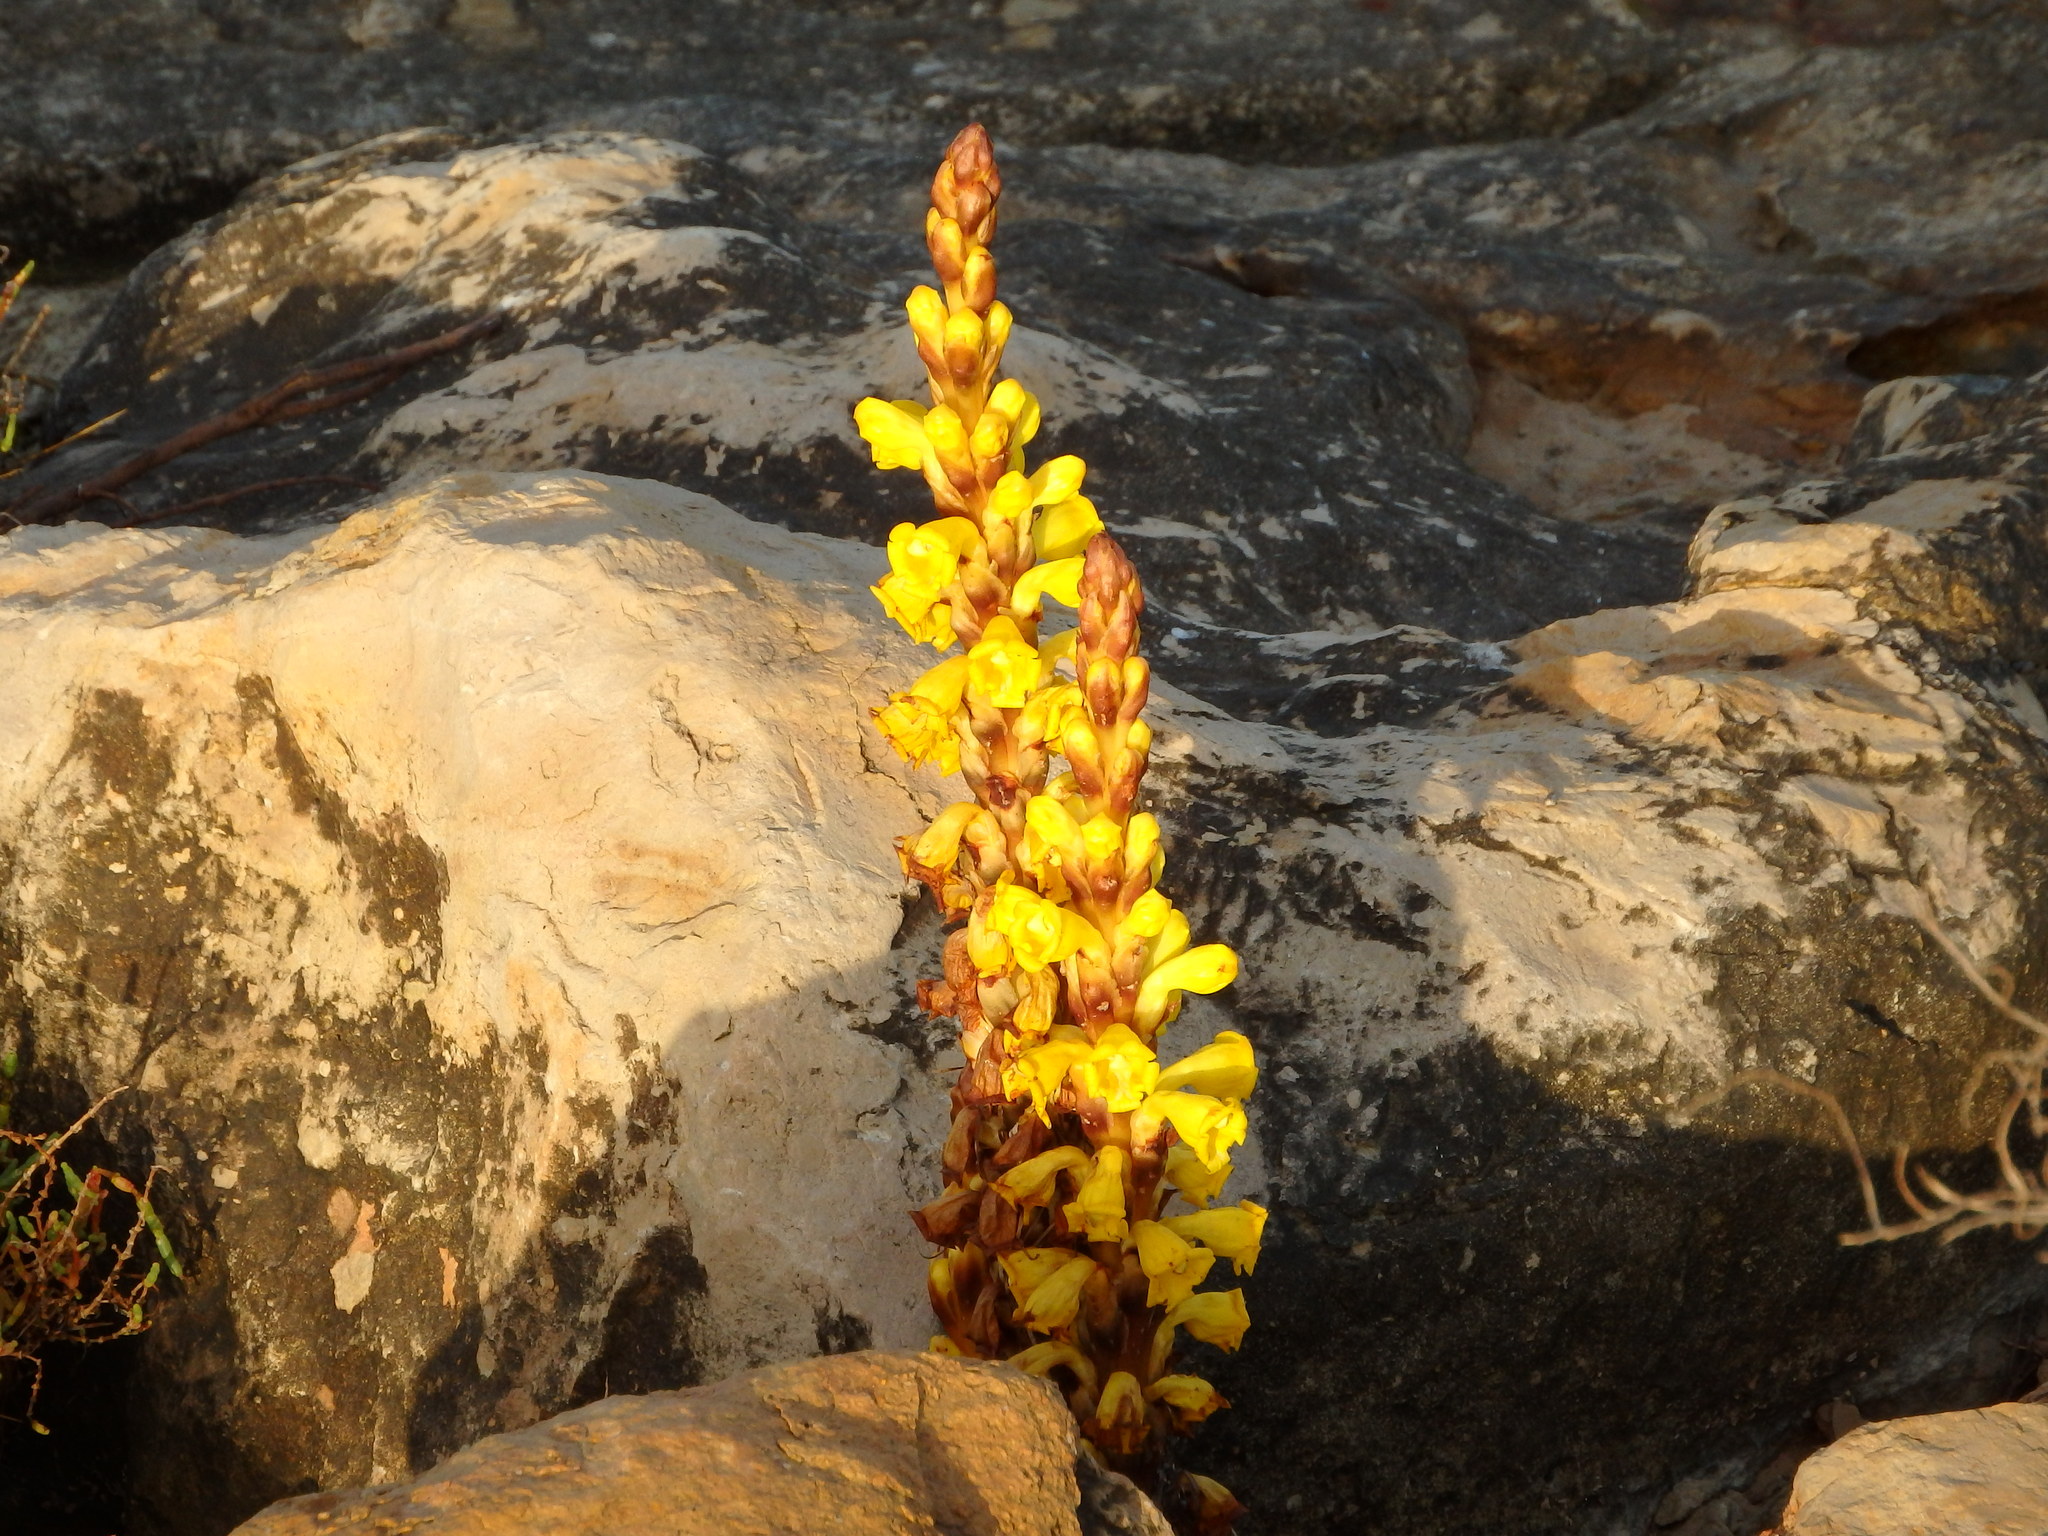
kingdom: Plantae
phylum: Tracheophyta
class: Magnoliopsida
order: Lamiales
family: Orobanchaceae
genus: Cistanche
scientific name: Cistanche phelypaea
